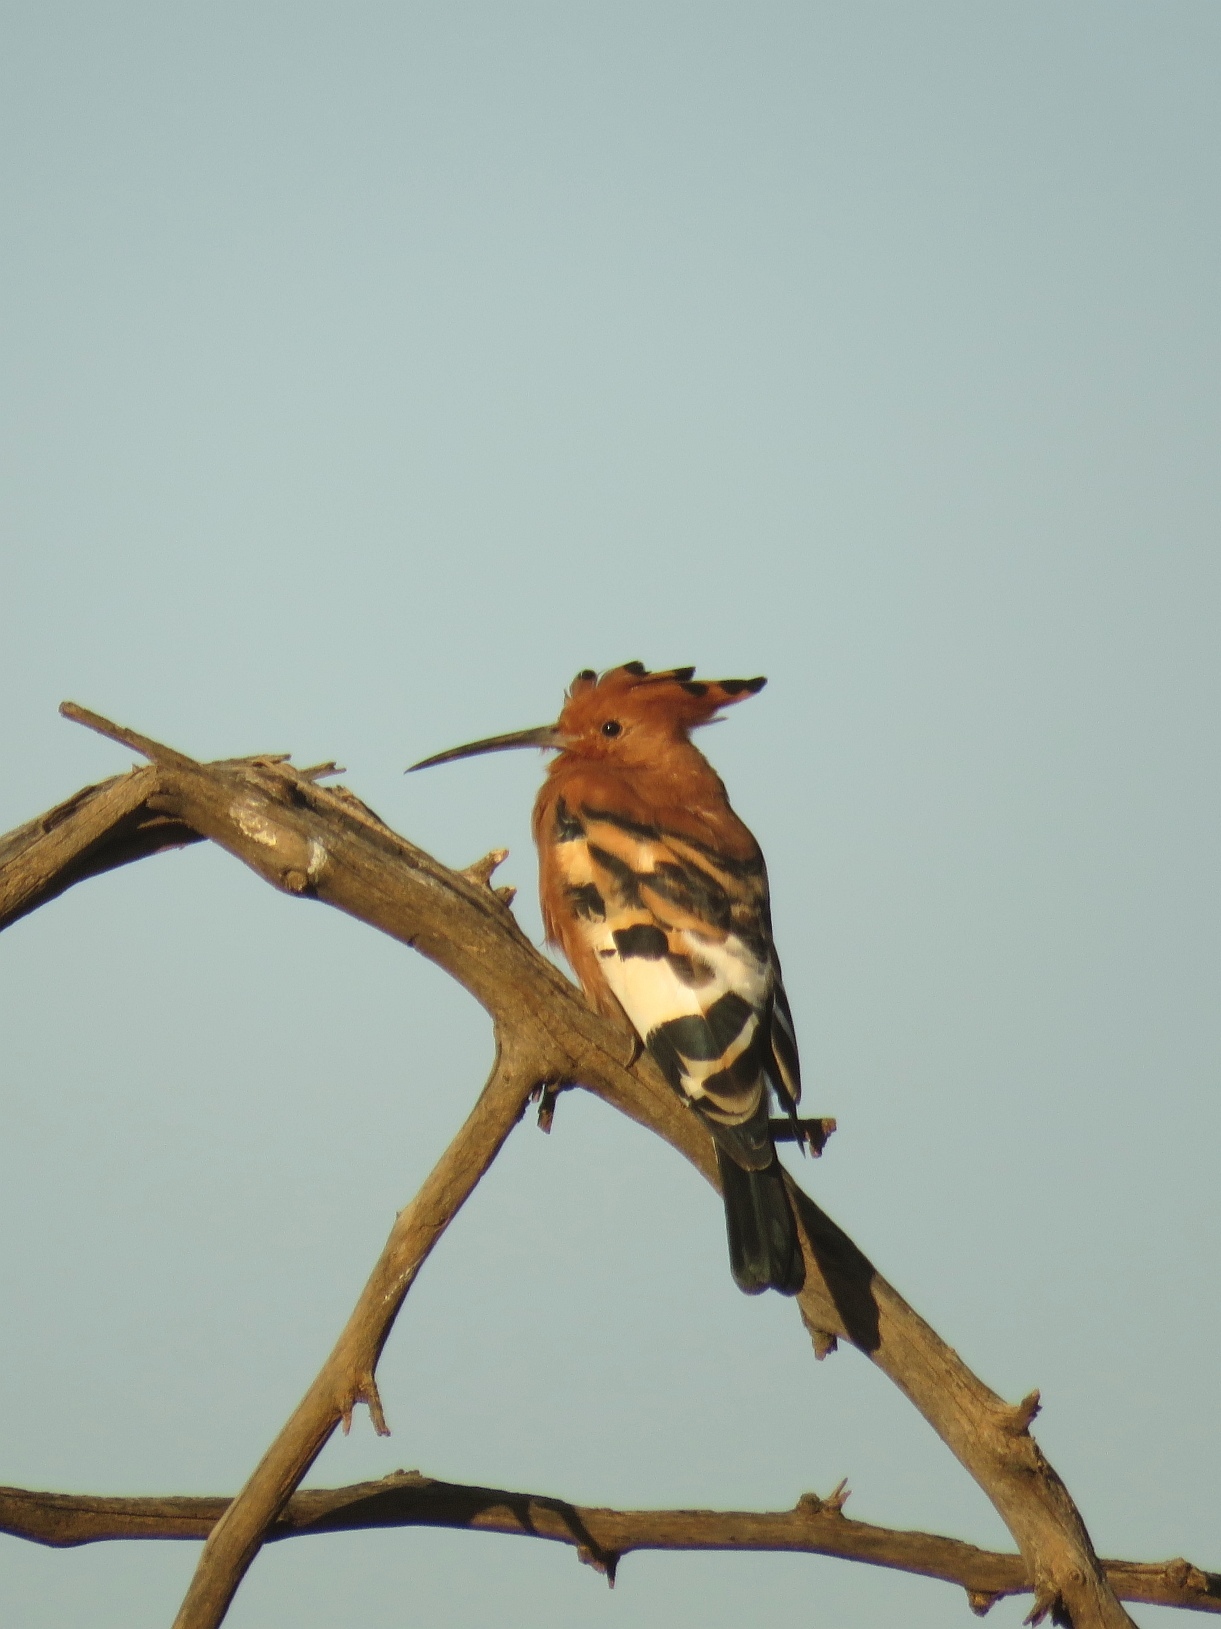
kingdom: Animalia
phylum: Chordata
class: Aves
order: Bucerotiformes
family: Upupidae
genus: Upupa
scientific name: Upupa africana
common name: African hoopoe
